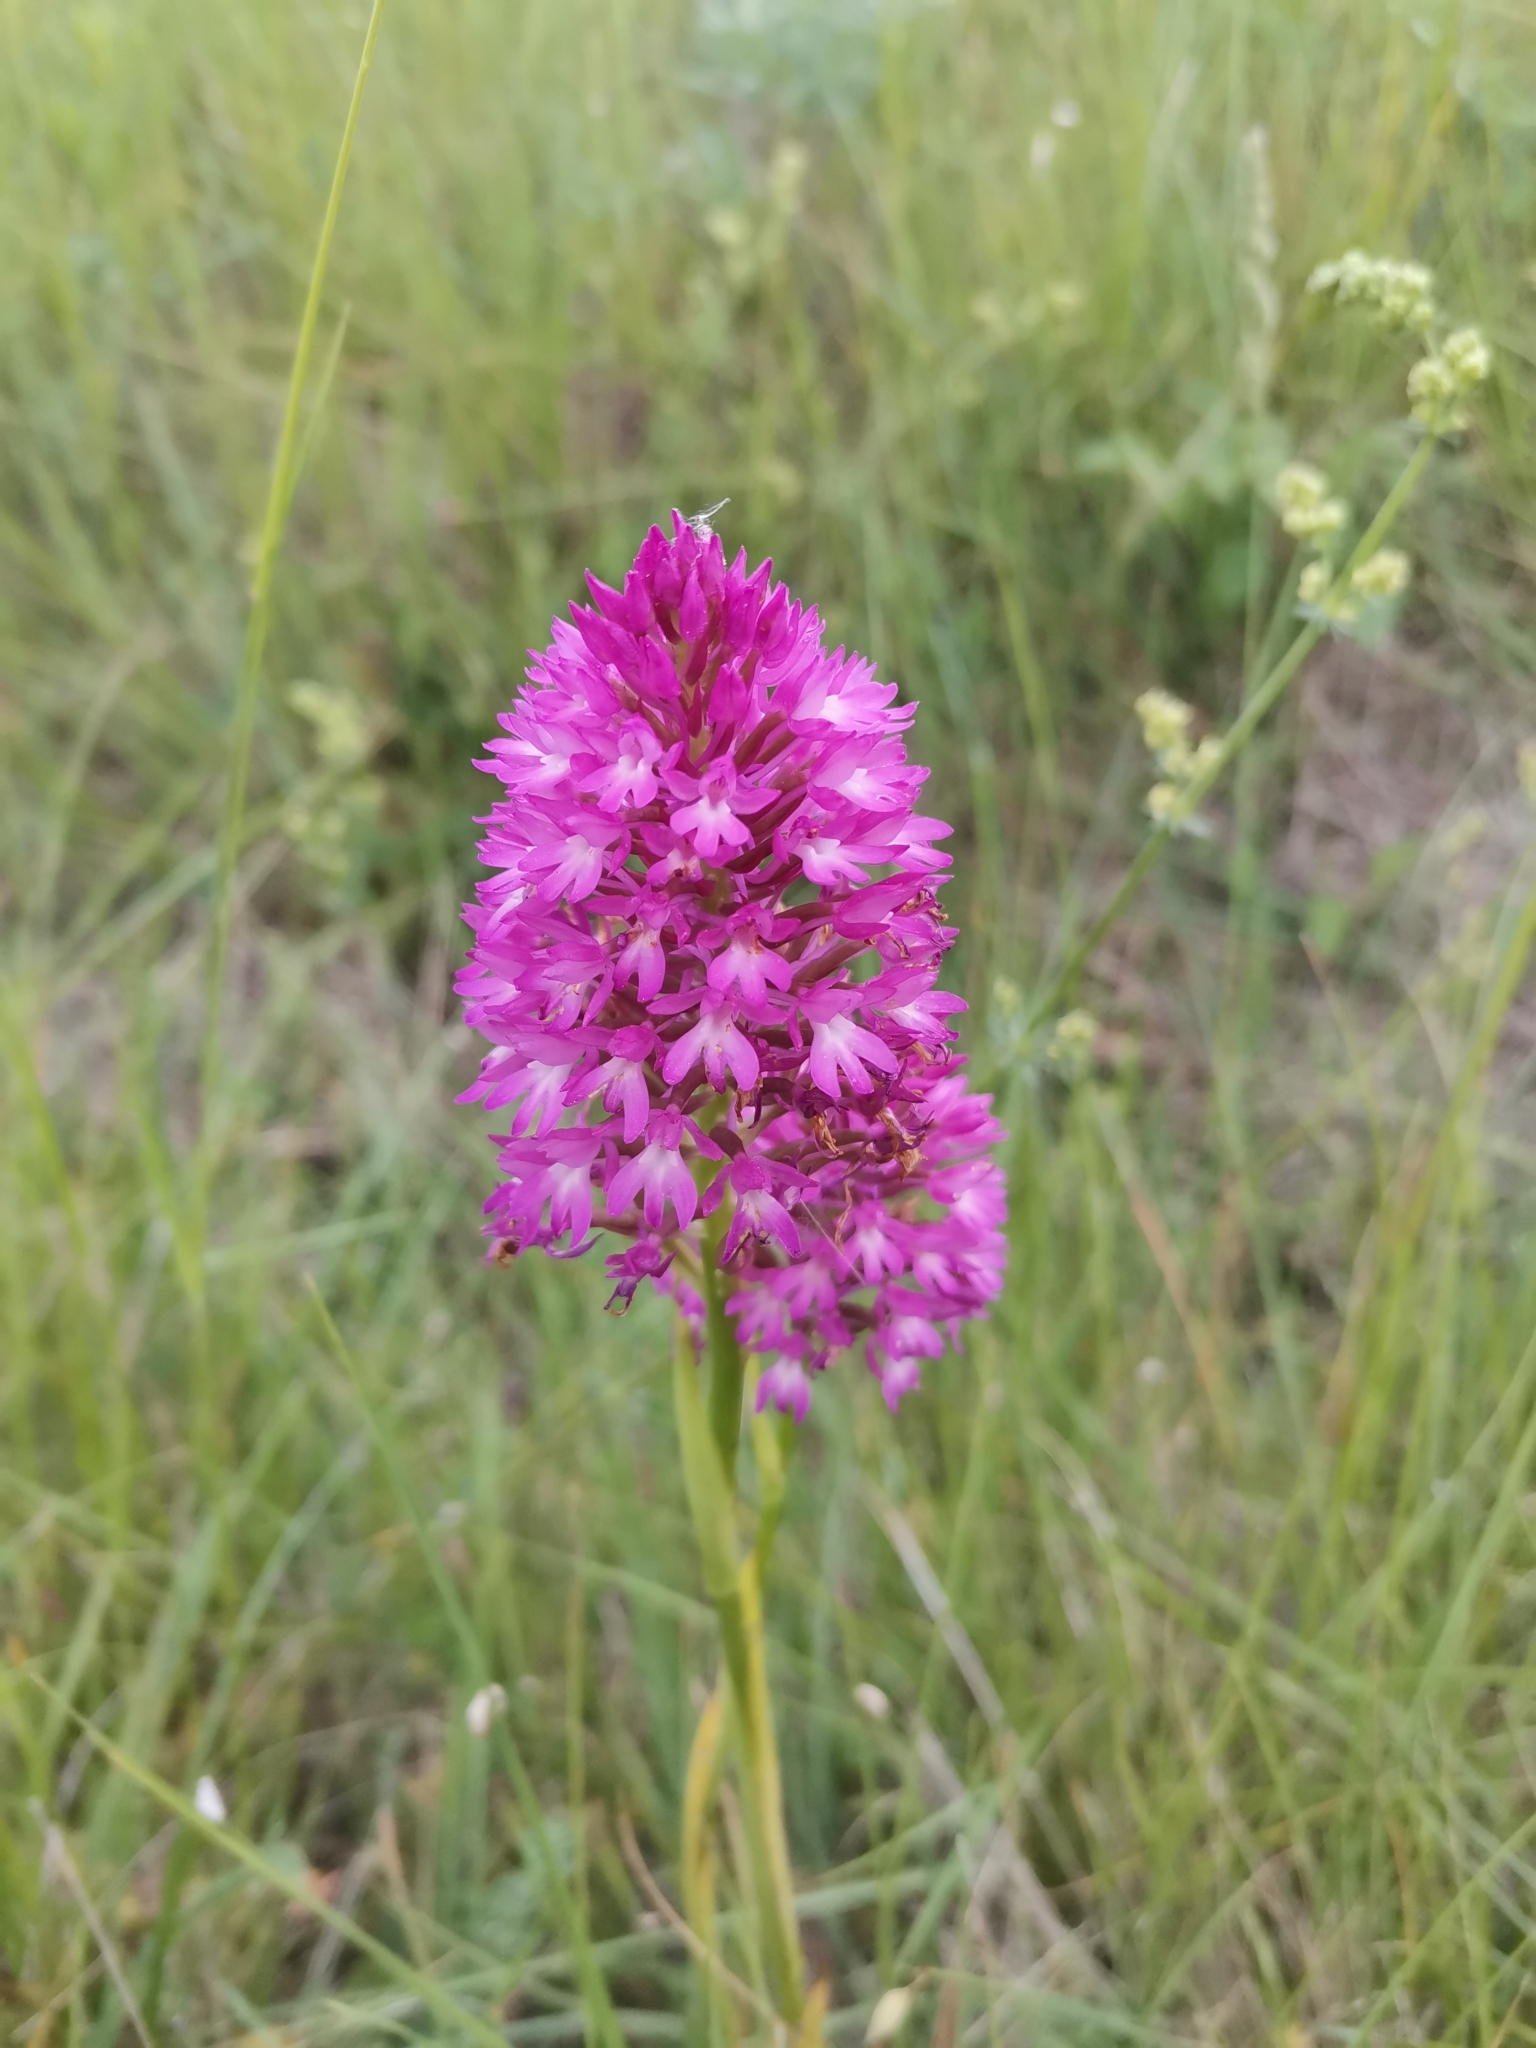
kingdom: Plantae
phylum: Tracheophyta
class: Liliopsida
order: Asparagales
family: Orchidaceae
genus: Anacamptis
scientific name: Anacamptis pyramidalis
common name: Pyramidal orchid
